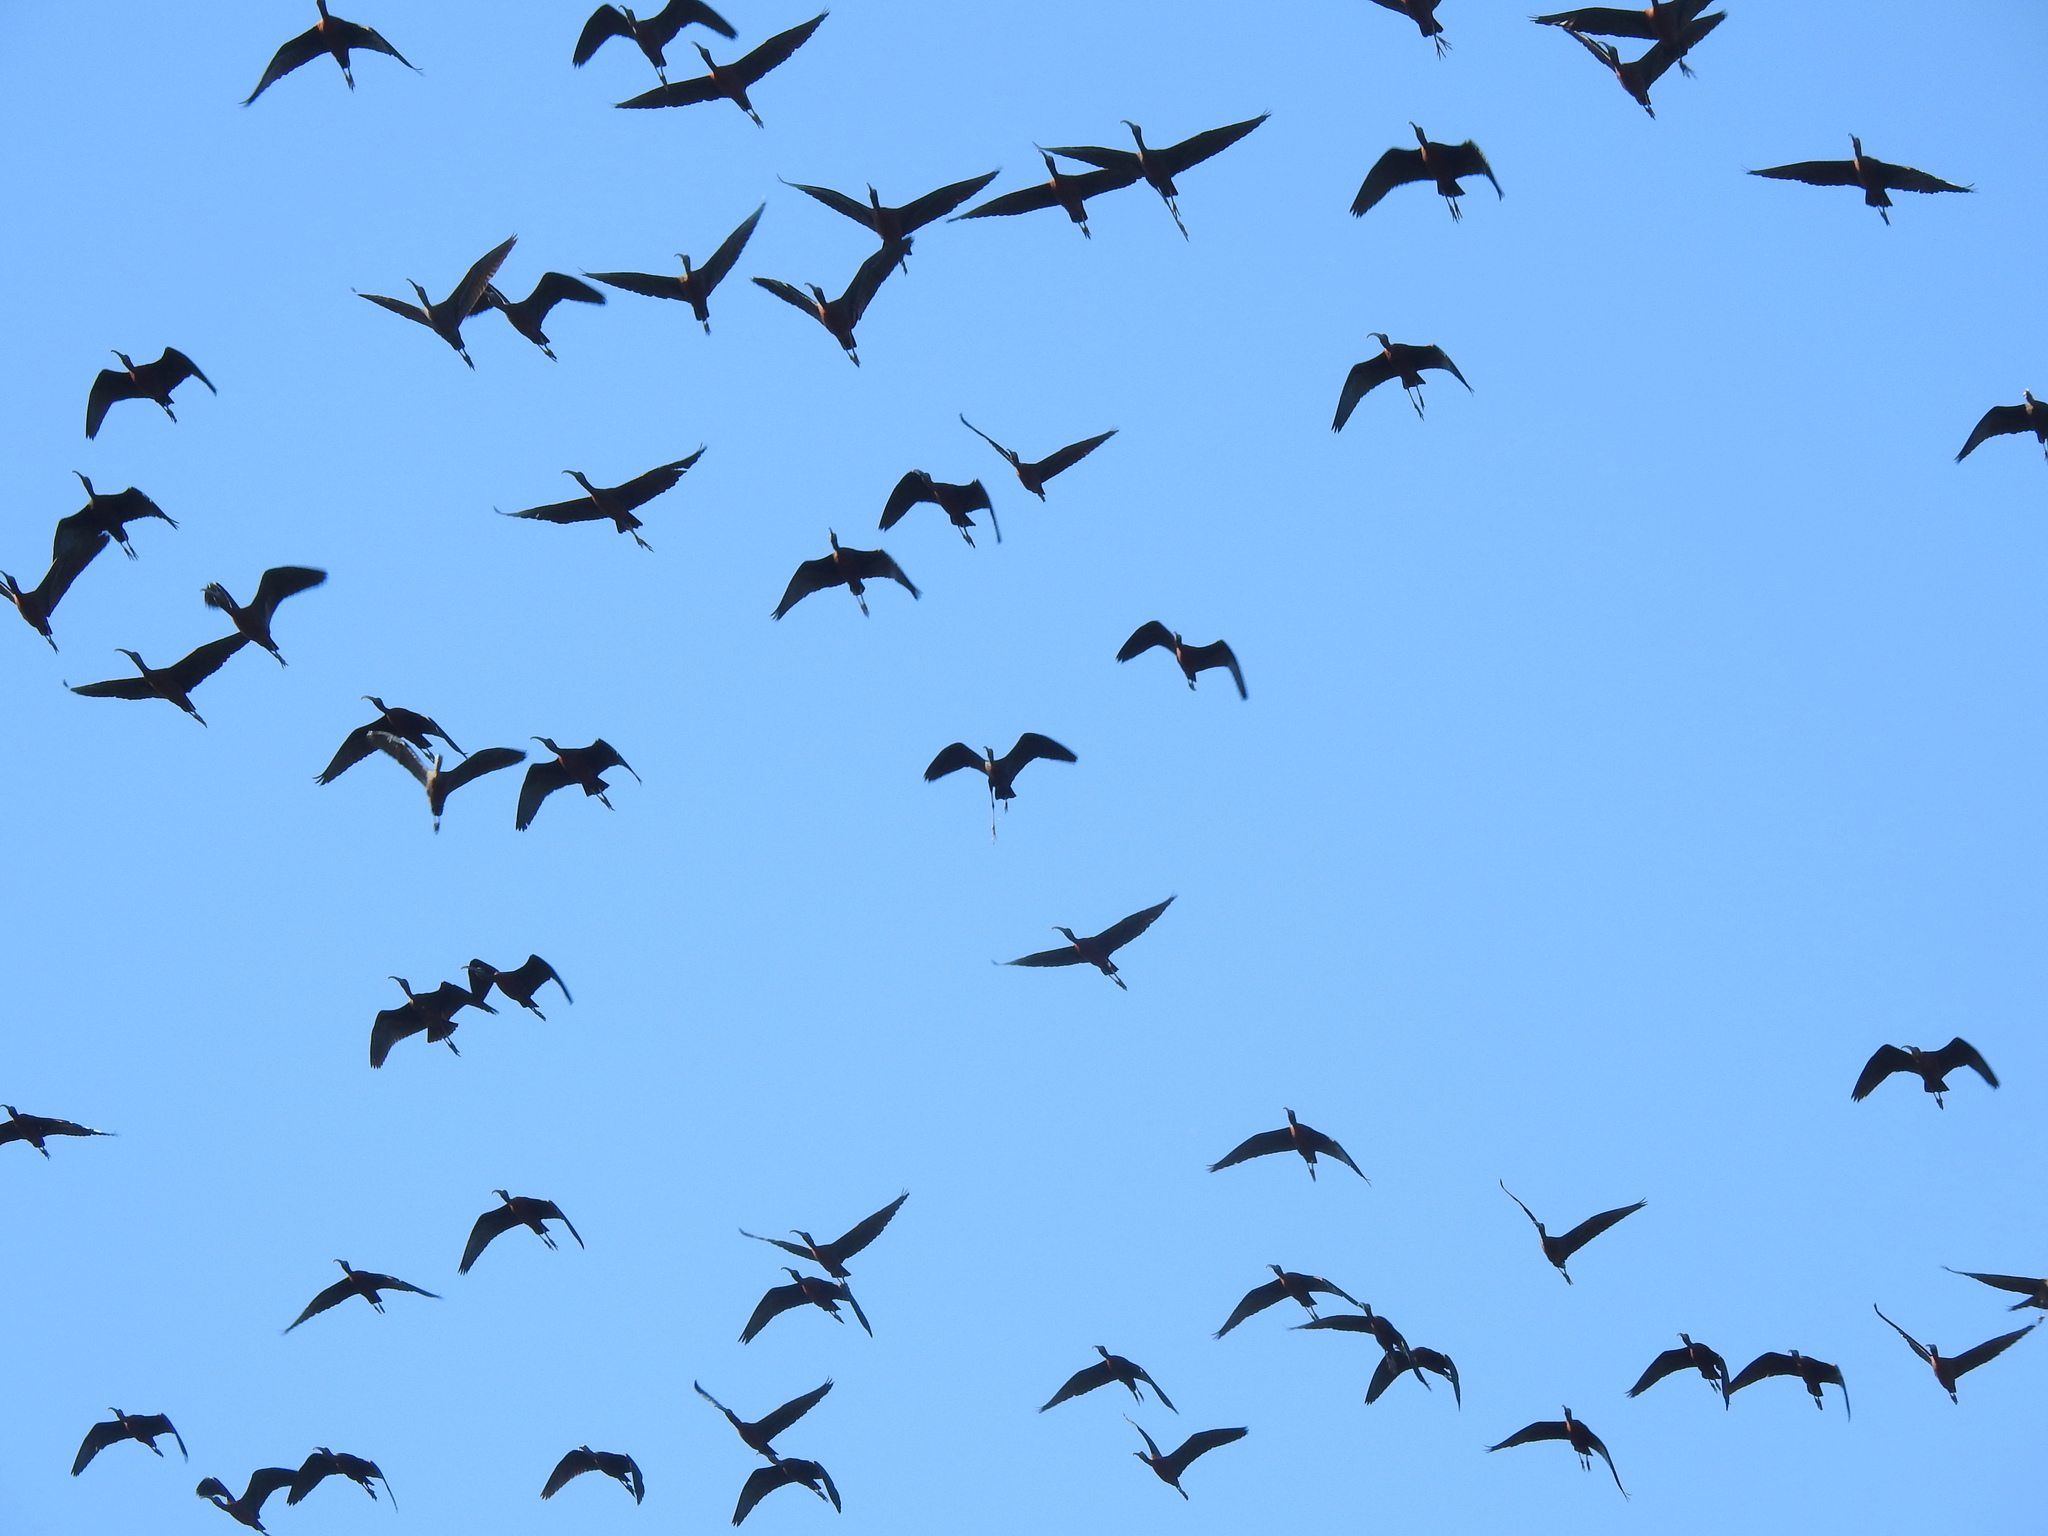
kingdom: Animalia
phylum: Chordata
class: Aves
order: Pelecaniformes
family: Threskiornithidae
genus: Plegadis
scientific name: Plegadis falcinellus
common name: Glossy ibis
